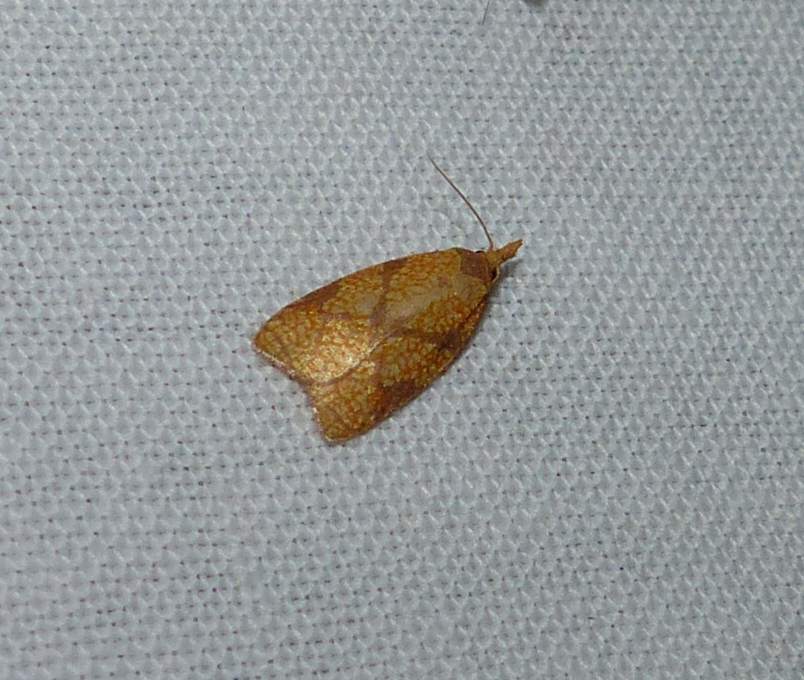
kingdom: Animalia
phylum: Arthropoda
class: Insecta
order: Lepidoptera
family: Tortricidae
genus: Cenopis
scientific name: Cenopis reticulatana
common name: Reticulated fruitworm moth
